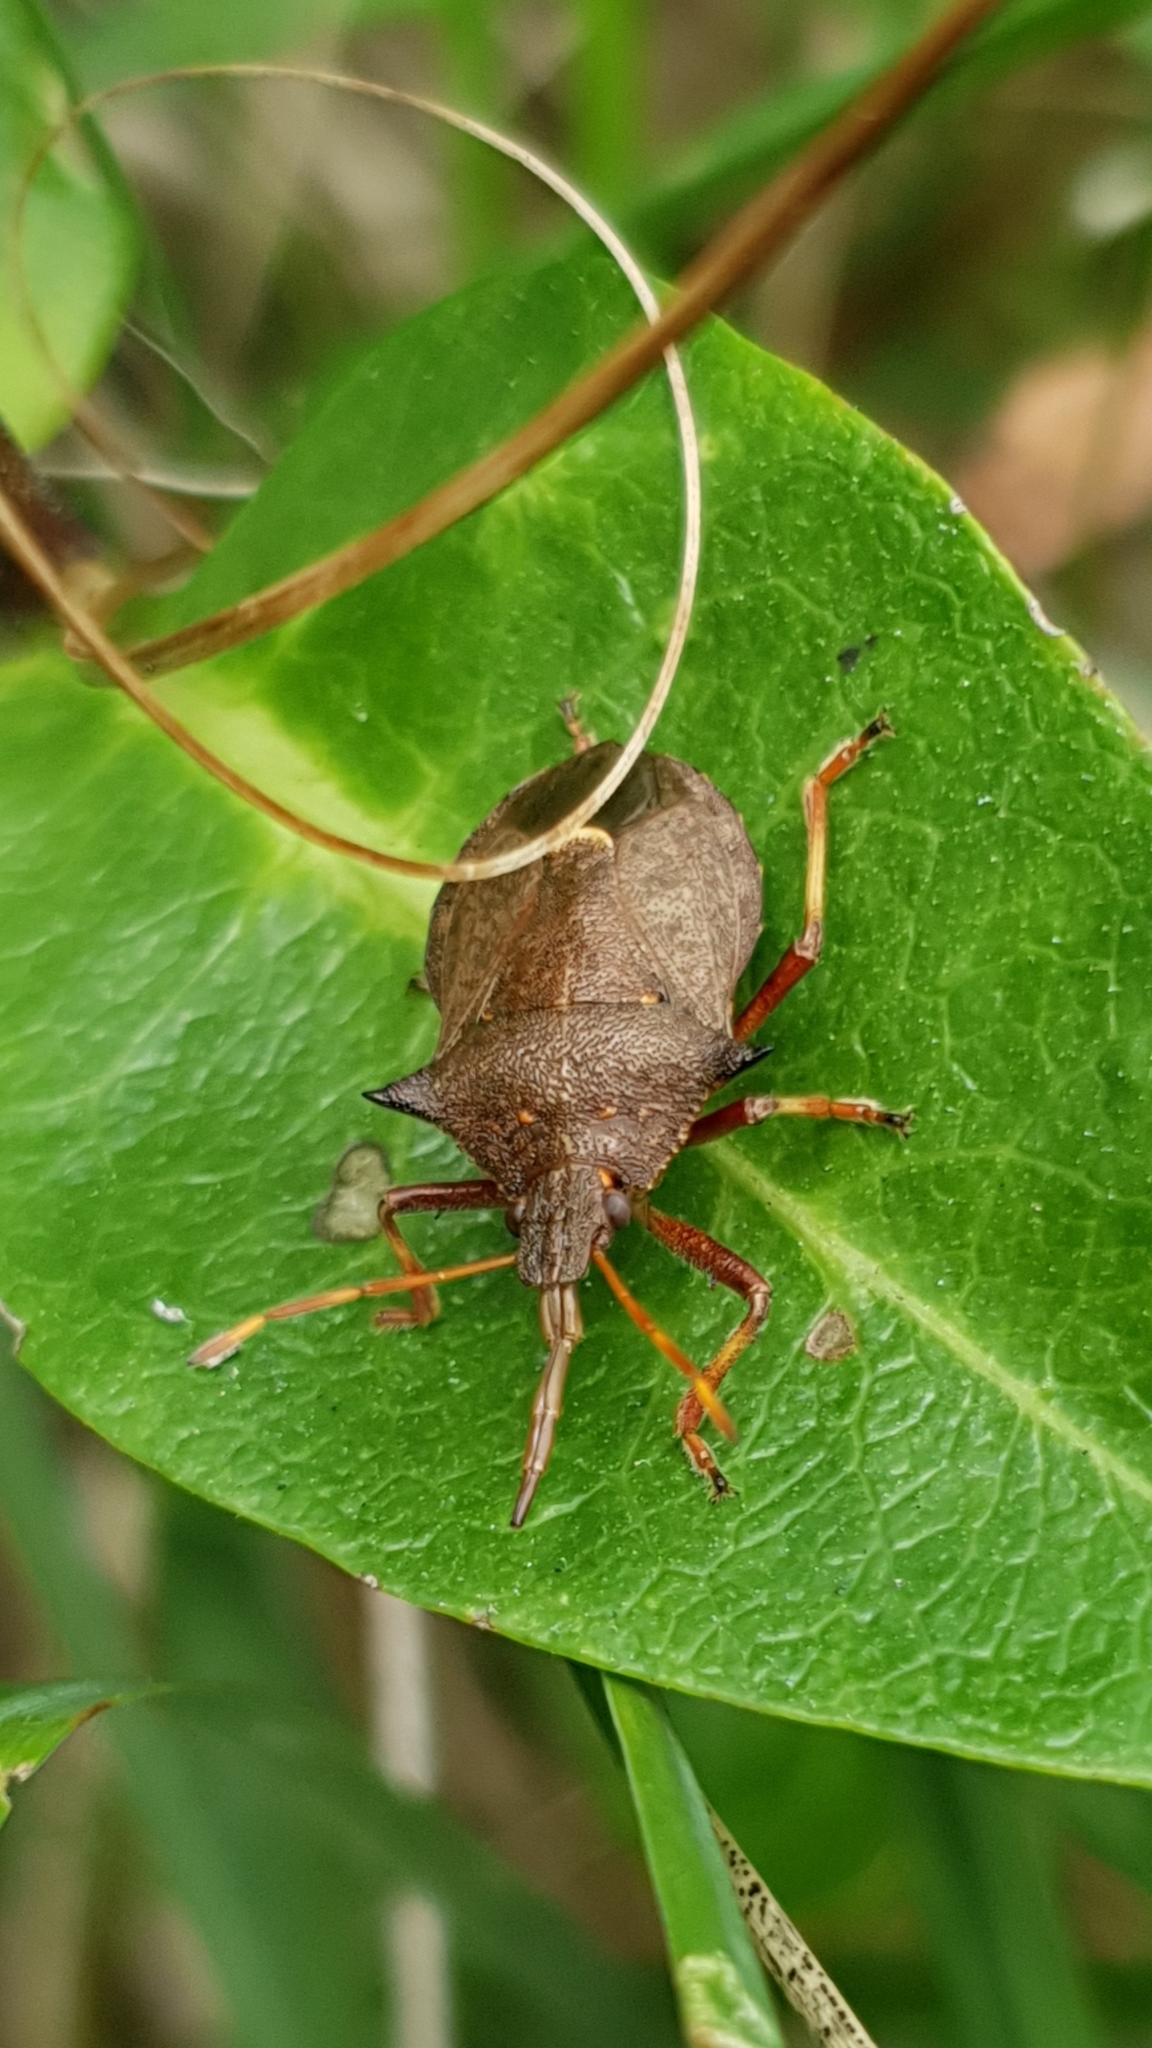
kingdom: Animalia
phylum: Arthropoda
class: Insecta
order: Hemiptera
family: Pentatomidae
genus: Picromerus
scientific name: Picromerus bidens
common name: Spiked shieldbug
